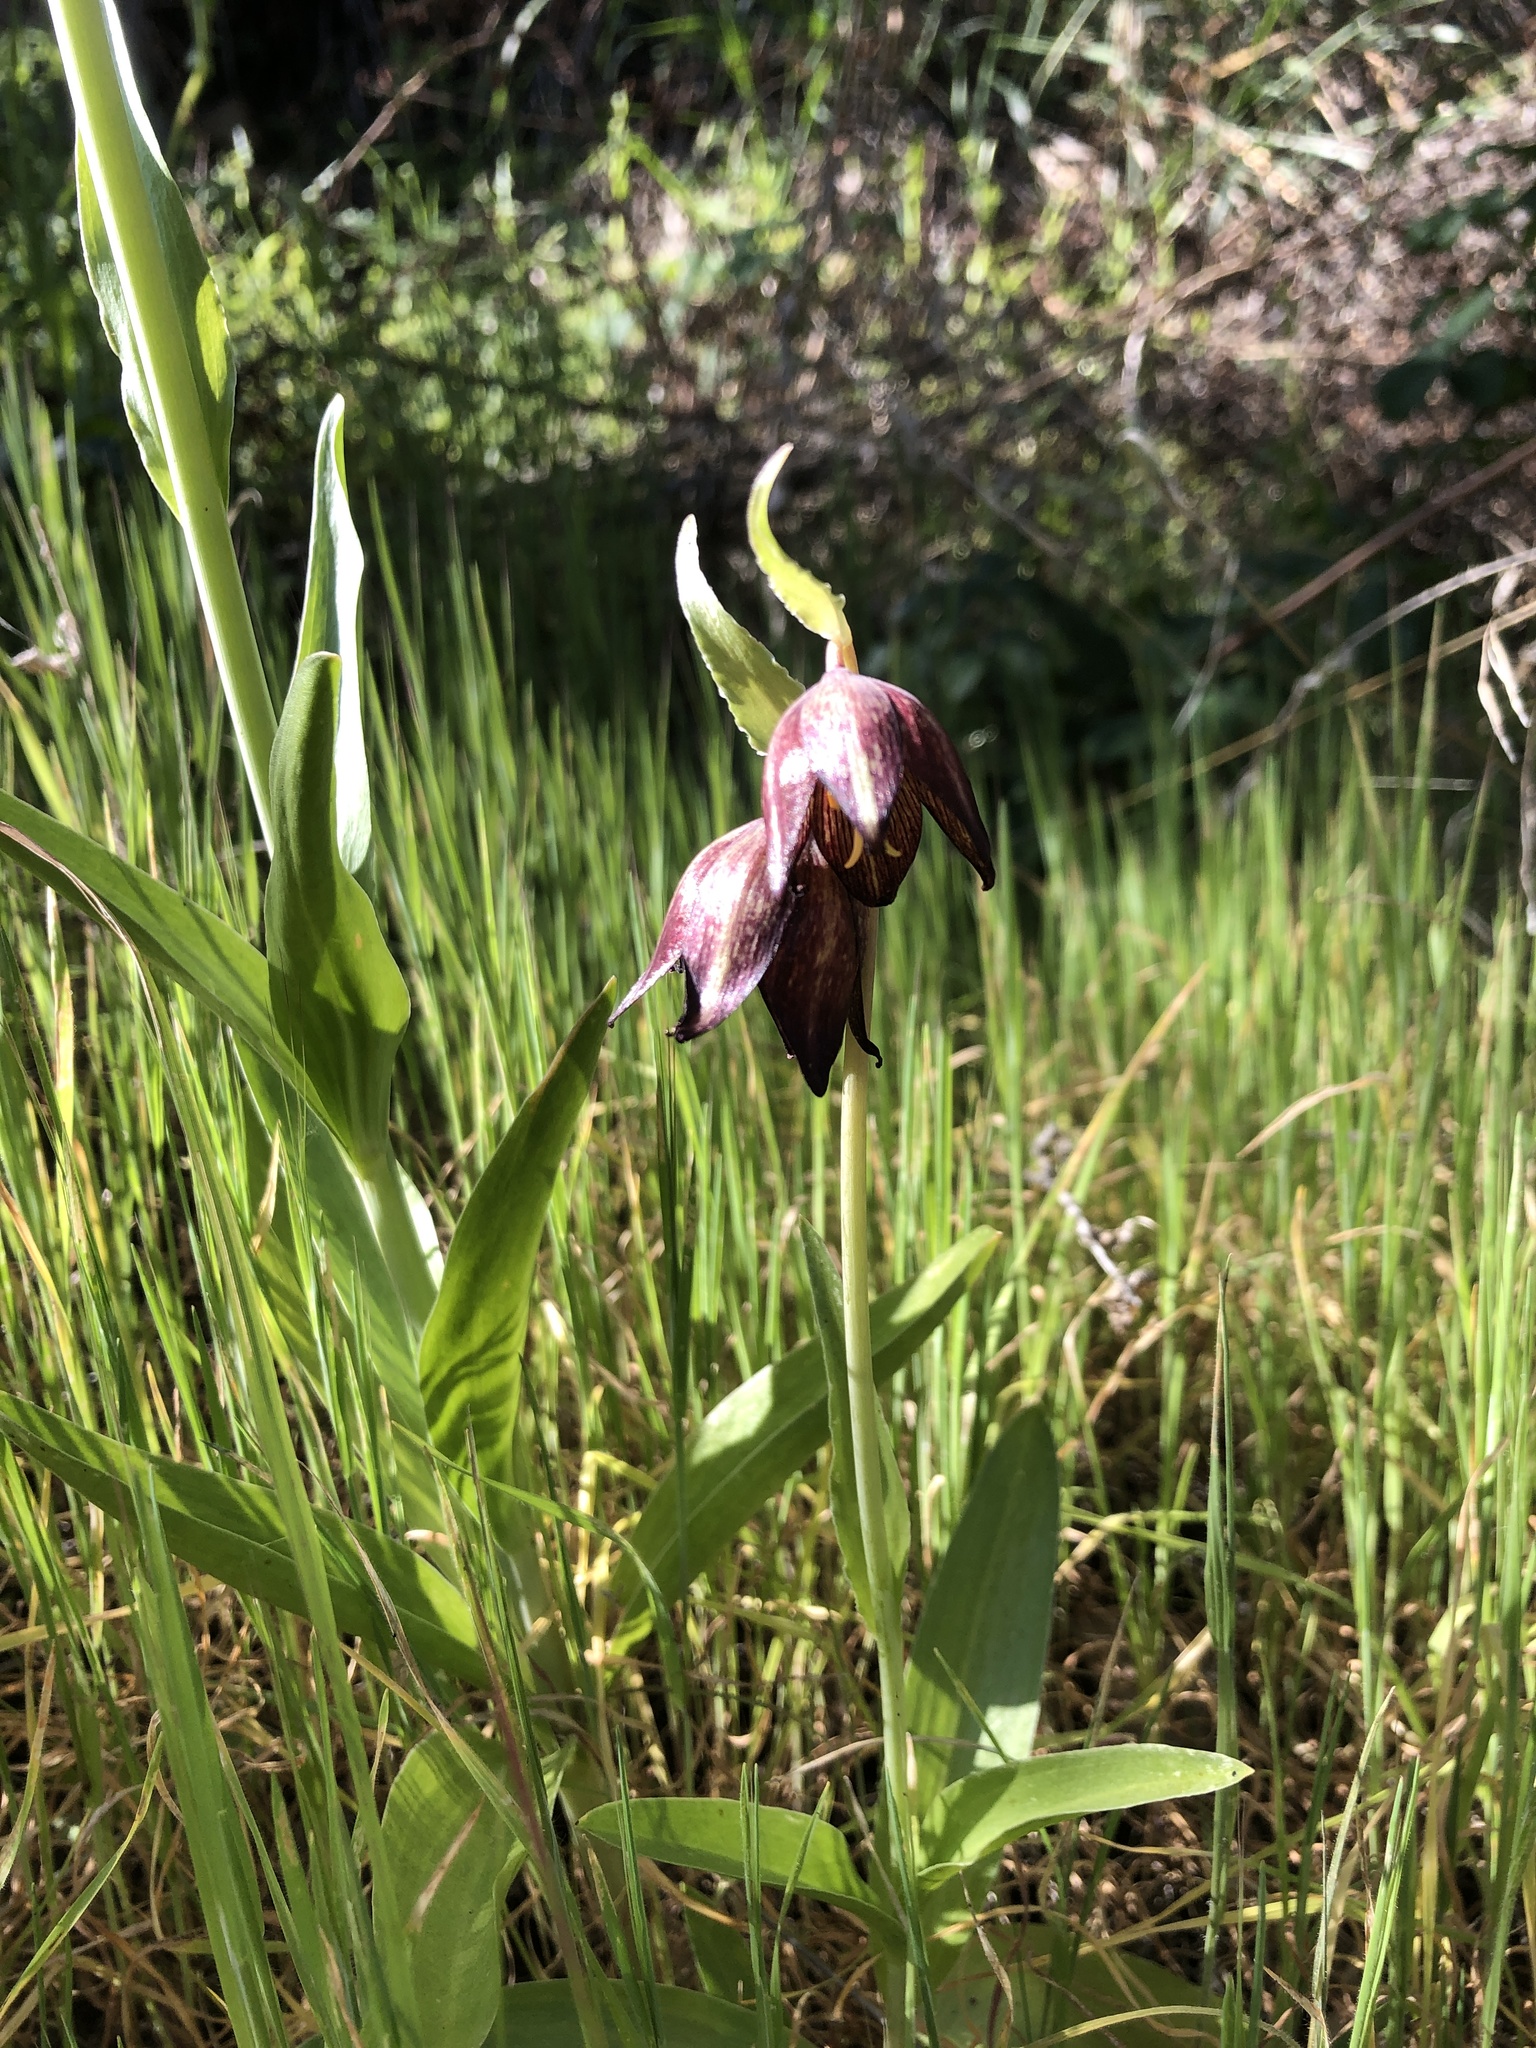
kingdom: Plantae
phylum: Tracheophyta
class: Liliopsida
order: Liliales
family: Liliaceae
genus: Fritillaria
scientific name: Fritillaria biflora
